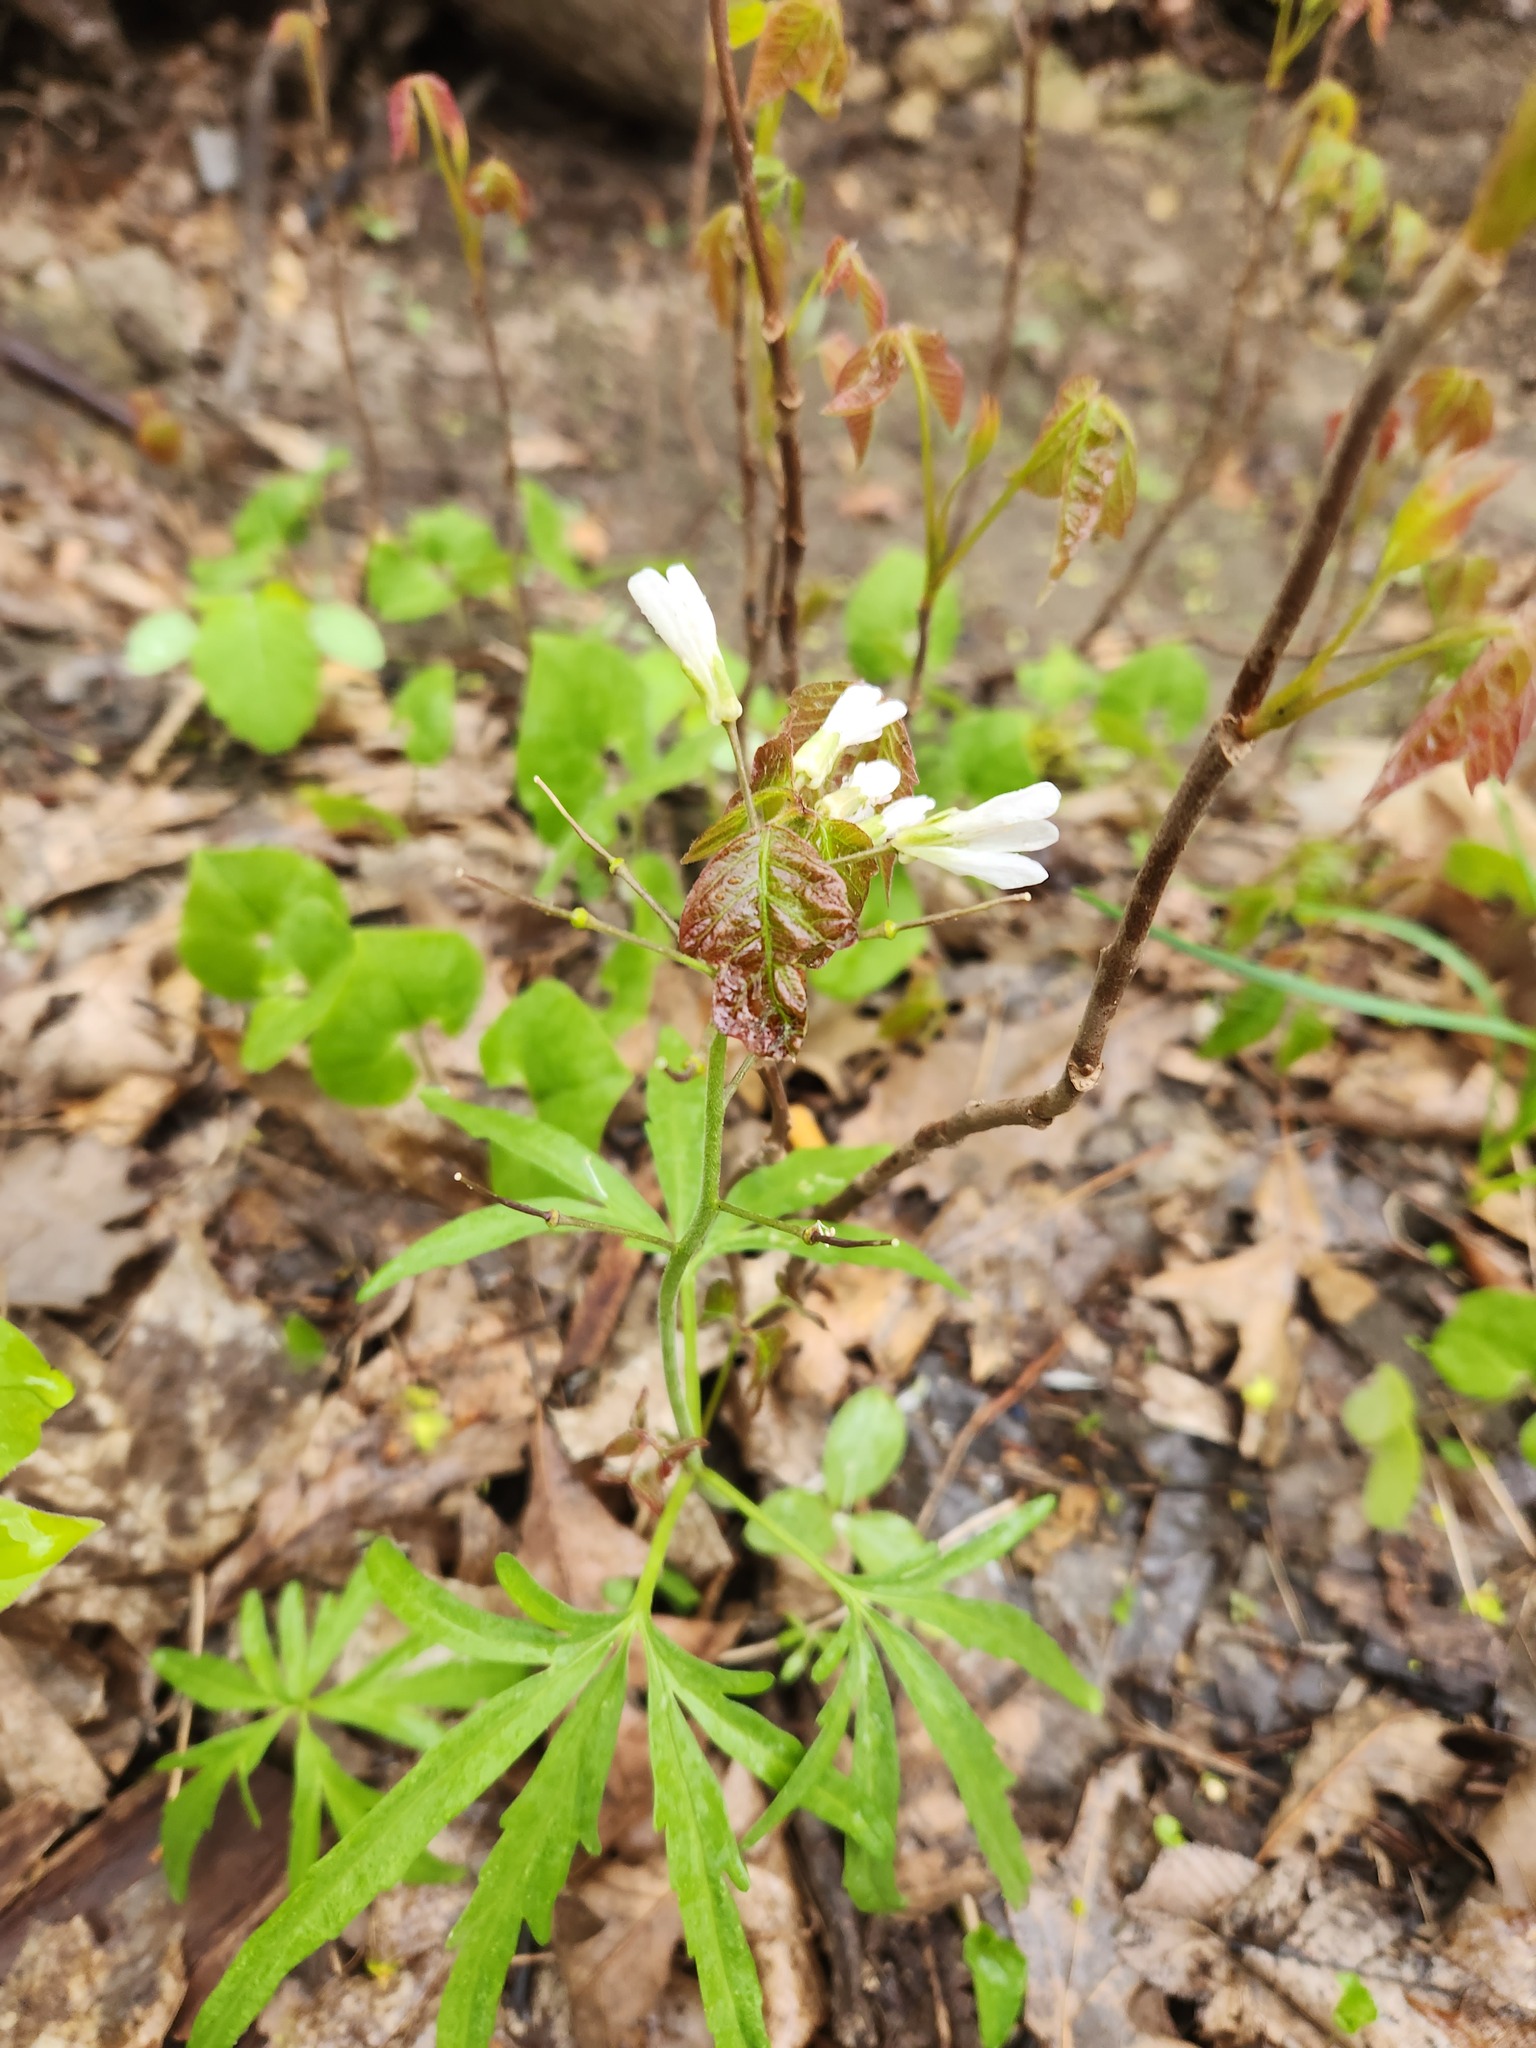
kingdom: Plantae
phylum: Tracheophyta
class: Magnoliopsida
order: Brassicales
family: Brassicaceae
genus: Cardamine
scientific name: Cardamine concatenata
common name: Cut-leaf toothcup
